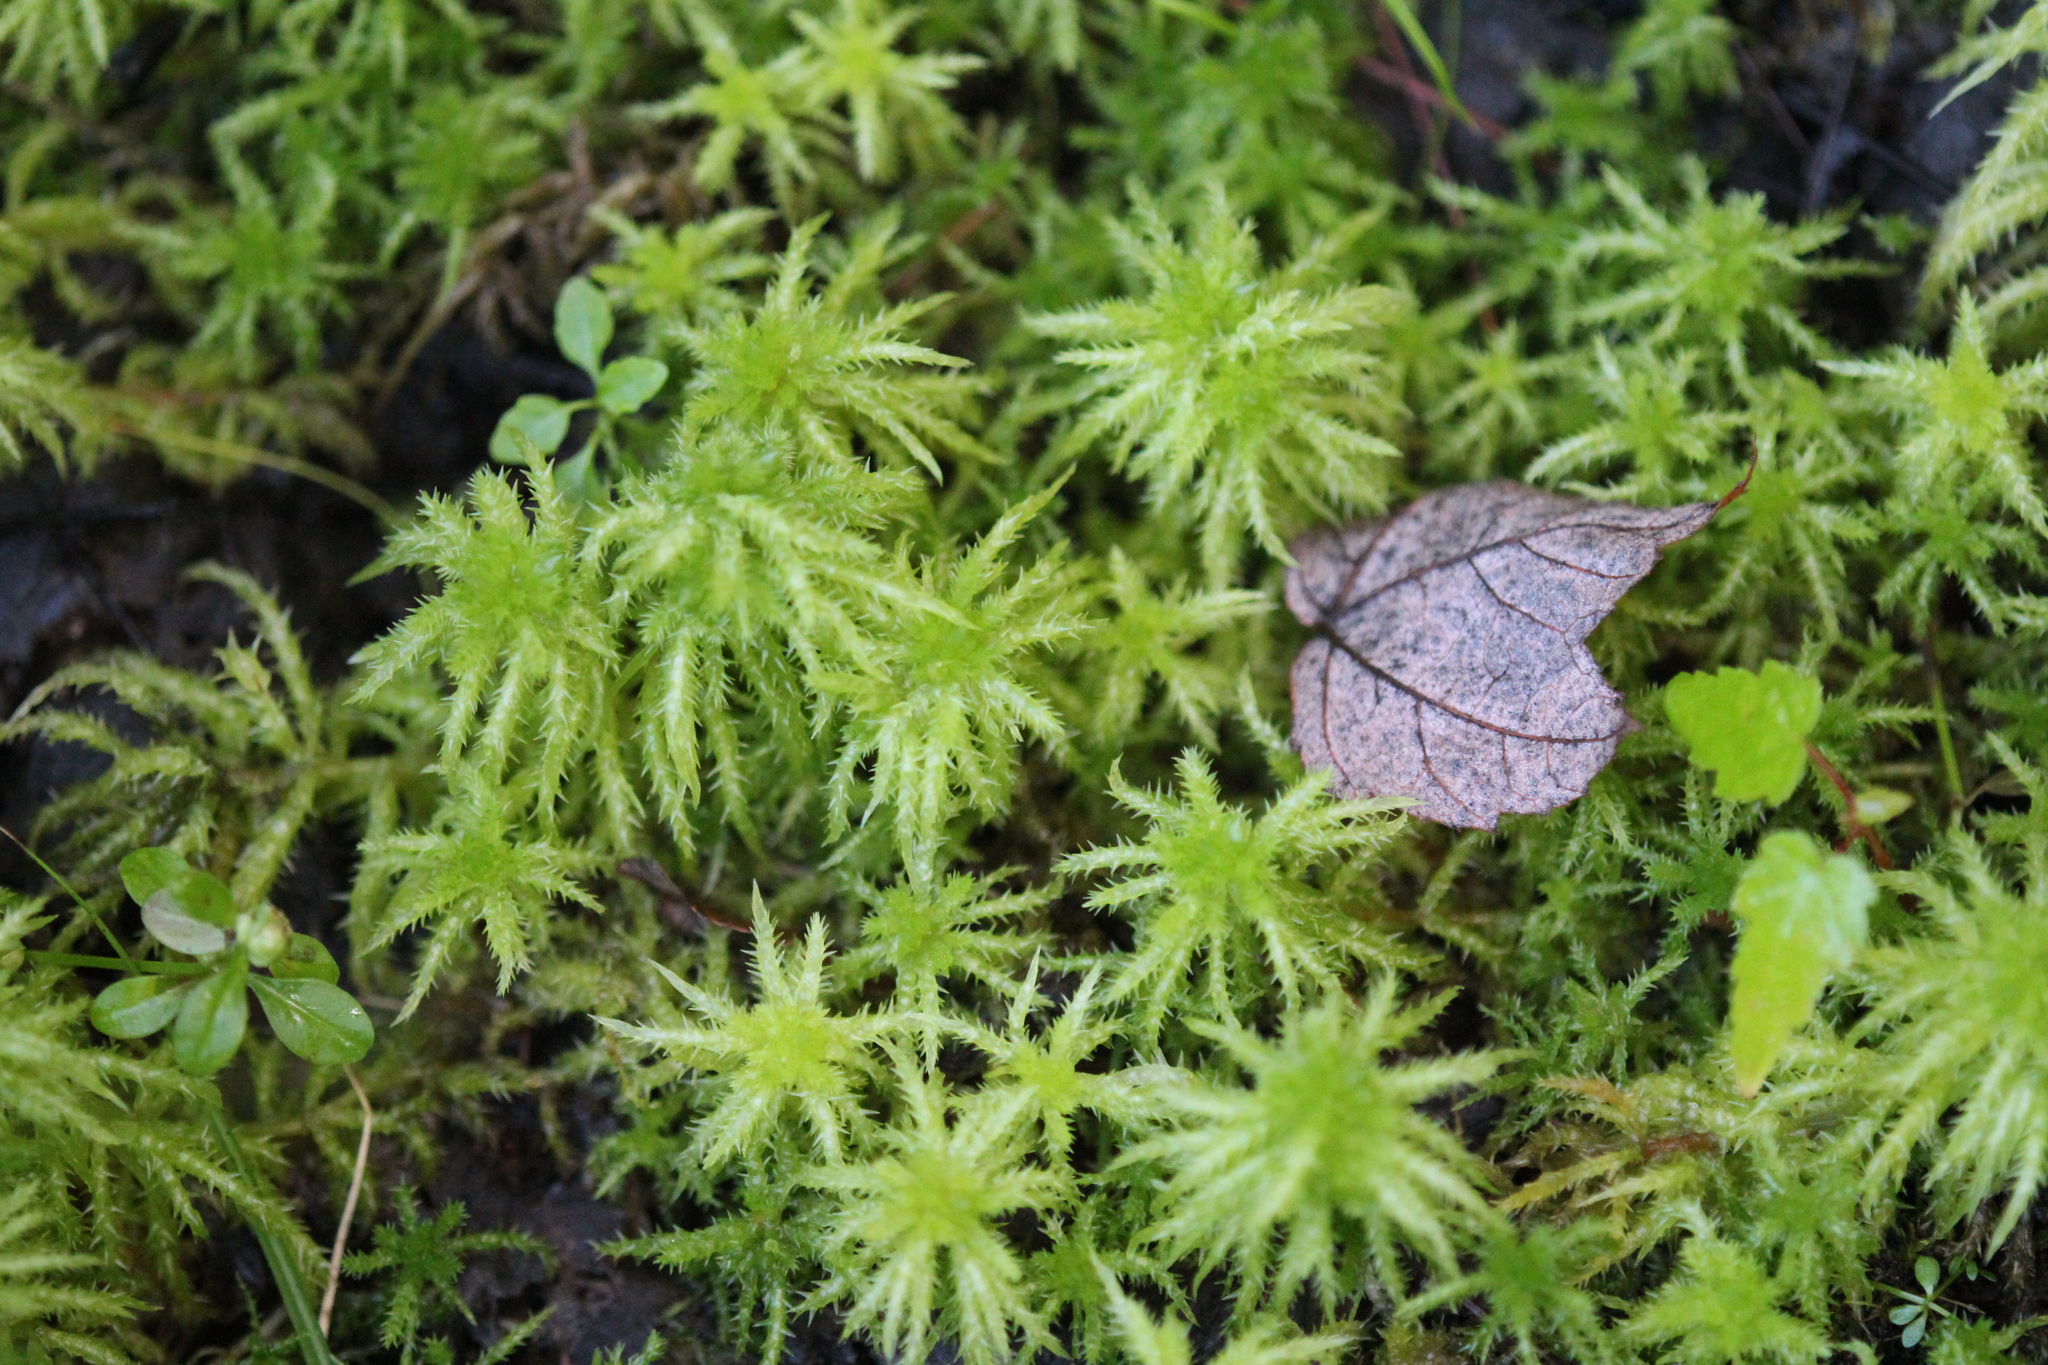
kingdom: Plantae
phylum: Bryophyta
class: Sphagnopsida
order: Sphagnales
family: Sphagnaceae
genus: Sphagnum
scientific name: Sphagnum squarrosum
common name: Shaggy peat moss
